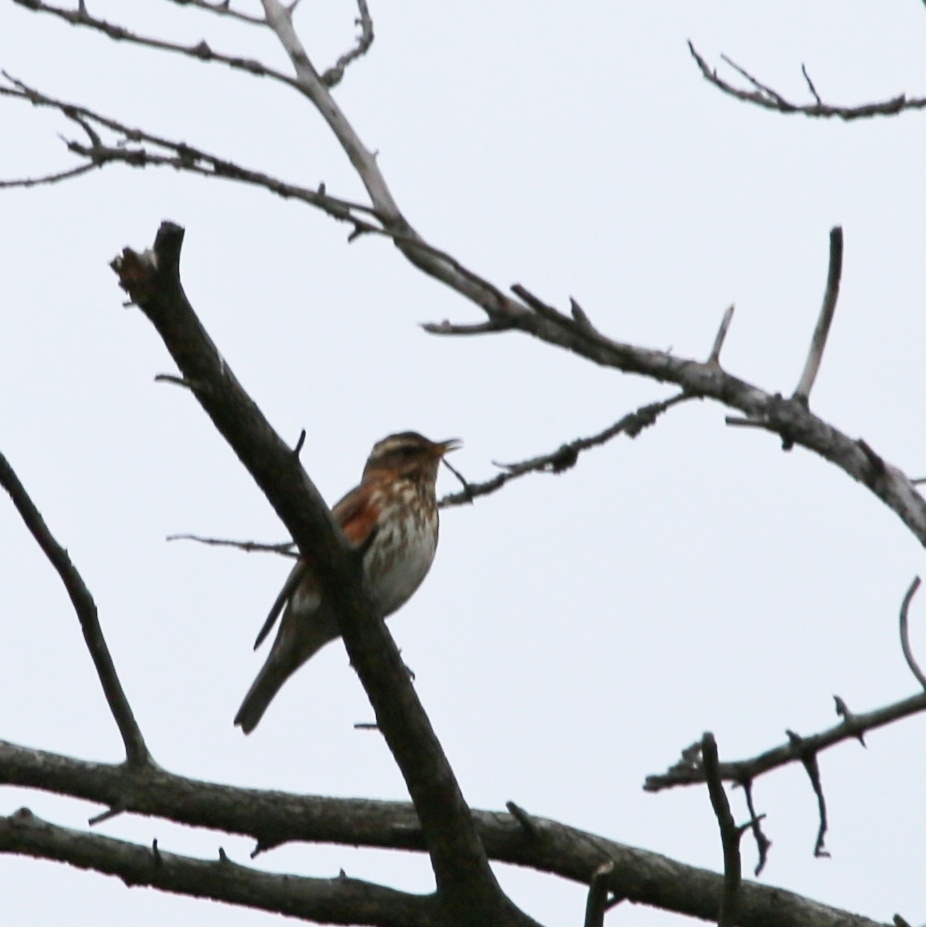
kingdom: Animalia
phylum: Chordata
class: Aves
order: Passeriformes
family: Turdidae
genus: Turdus
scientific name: Turdus iliacus
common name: Redwing
